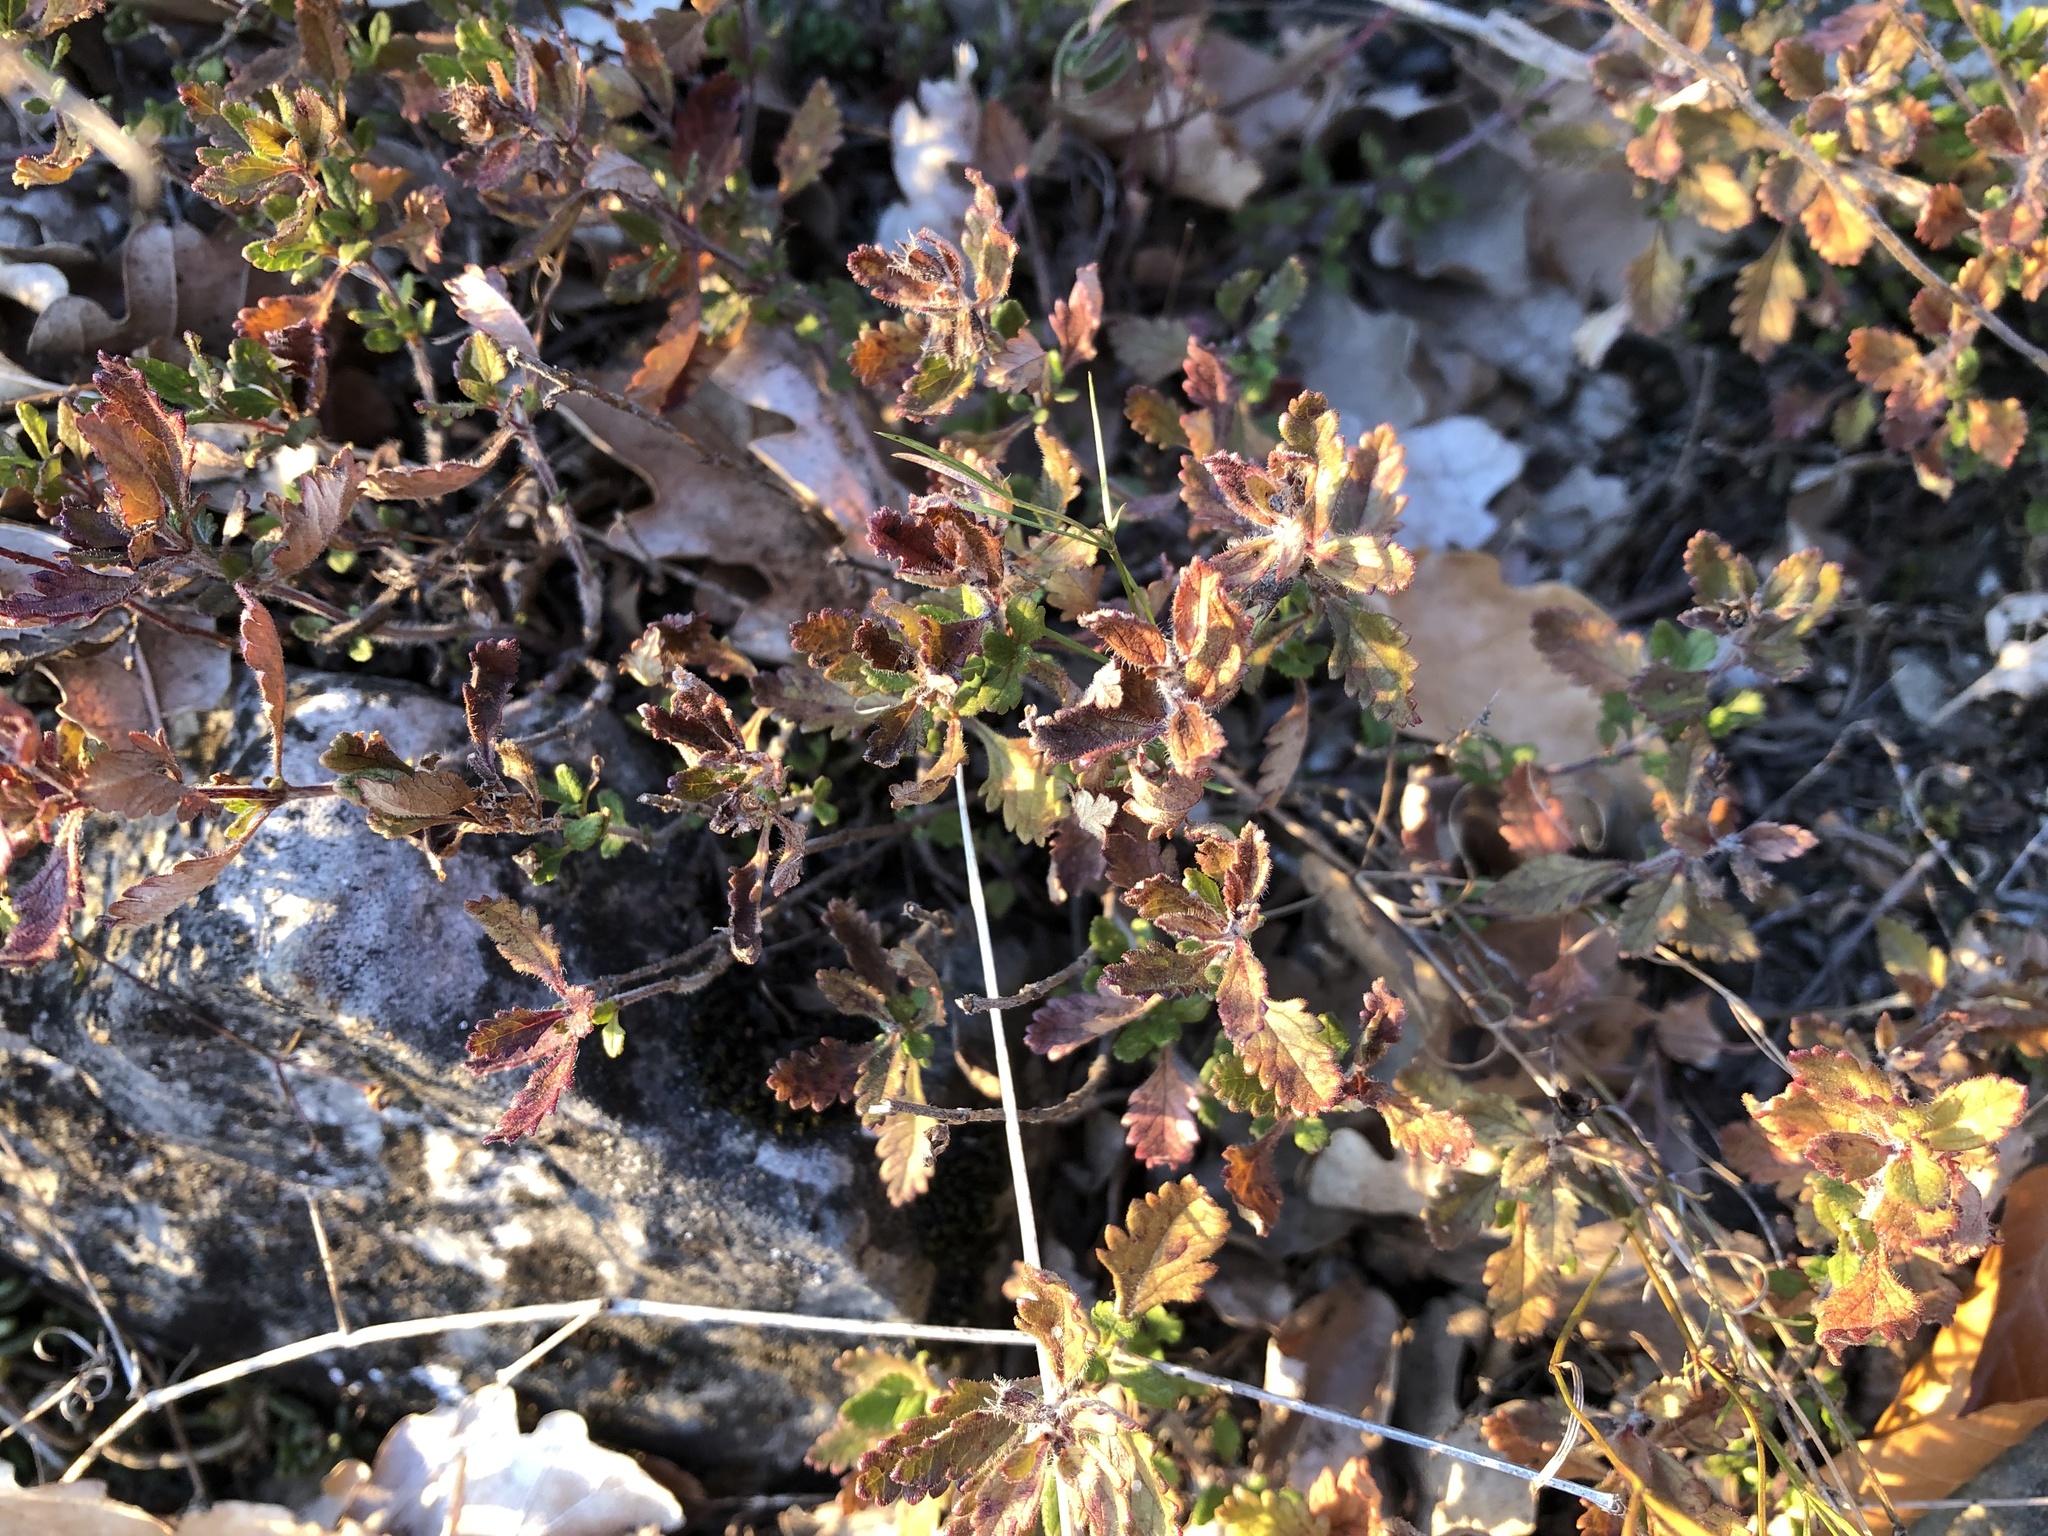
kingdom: Plantae
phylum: Tracheophyta
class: Magnoliopsida
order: Lamiales
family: Lamiaceae
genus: Teucrium
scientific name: Teucrium chamaedrys
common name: Wall germander
